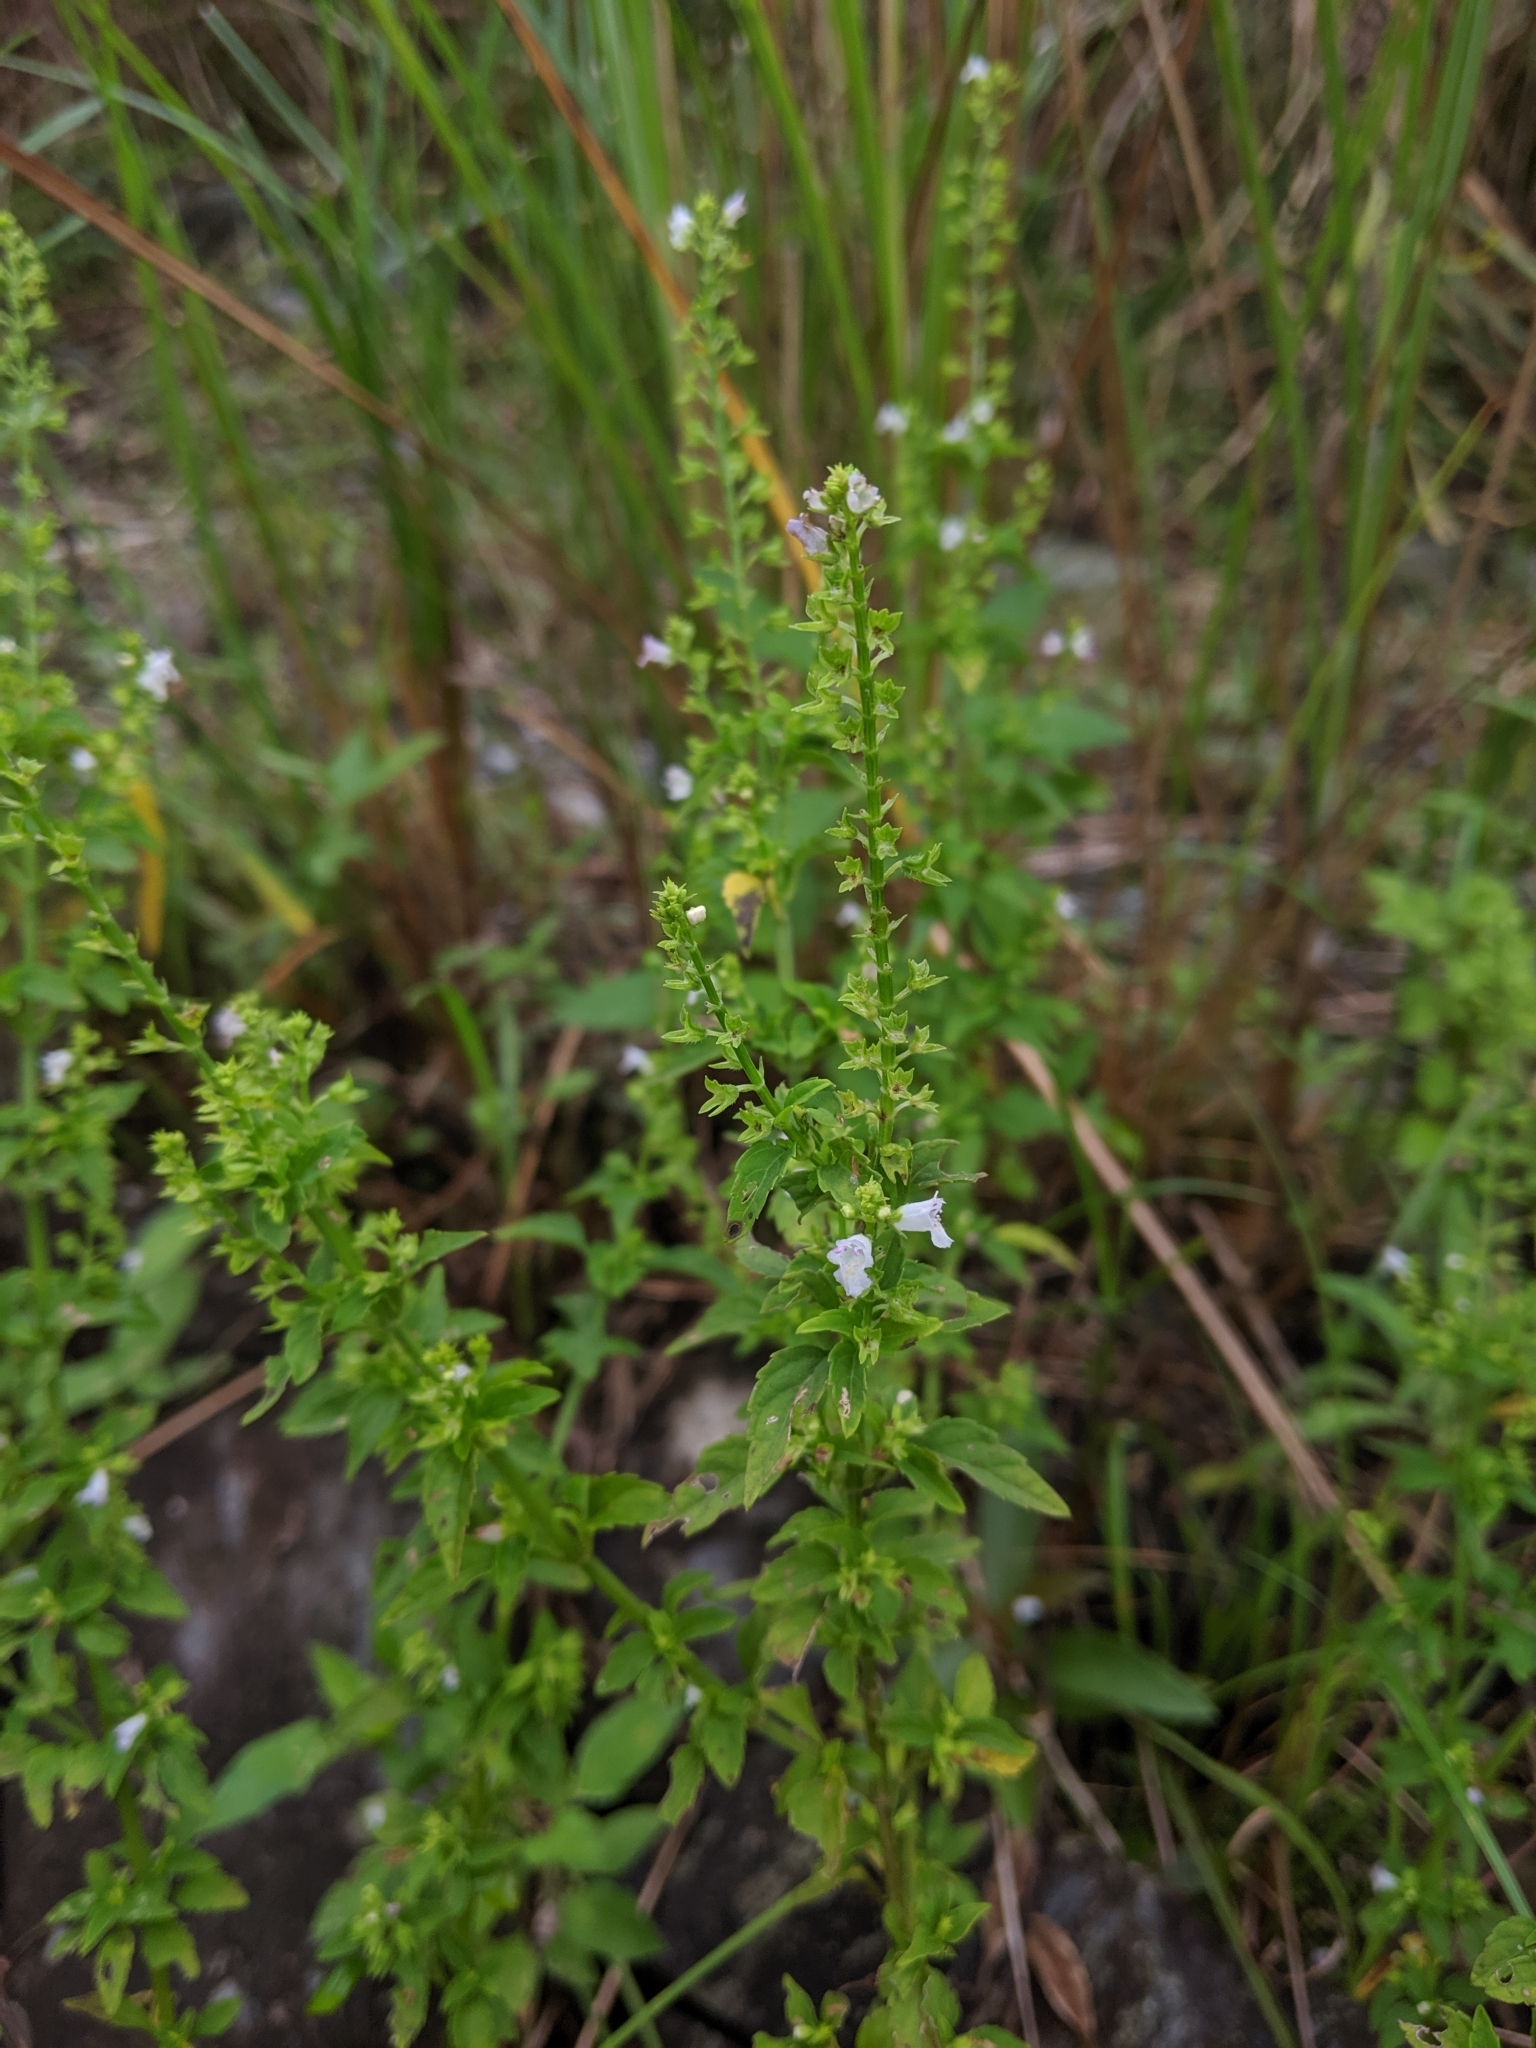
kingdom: Plantae
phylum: Tracheophyta
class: Magnoliopsida
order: Lamiales
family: Lamiaceae
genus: Mosla
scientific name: Mosla dianthera
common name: Miniature beefsteakplant
